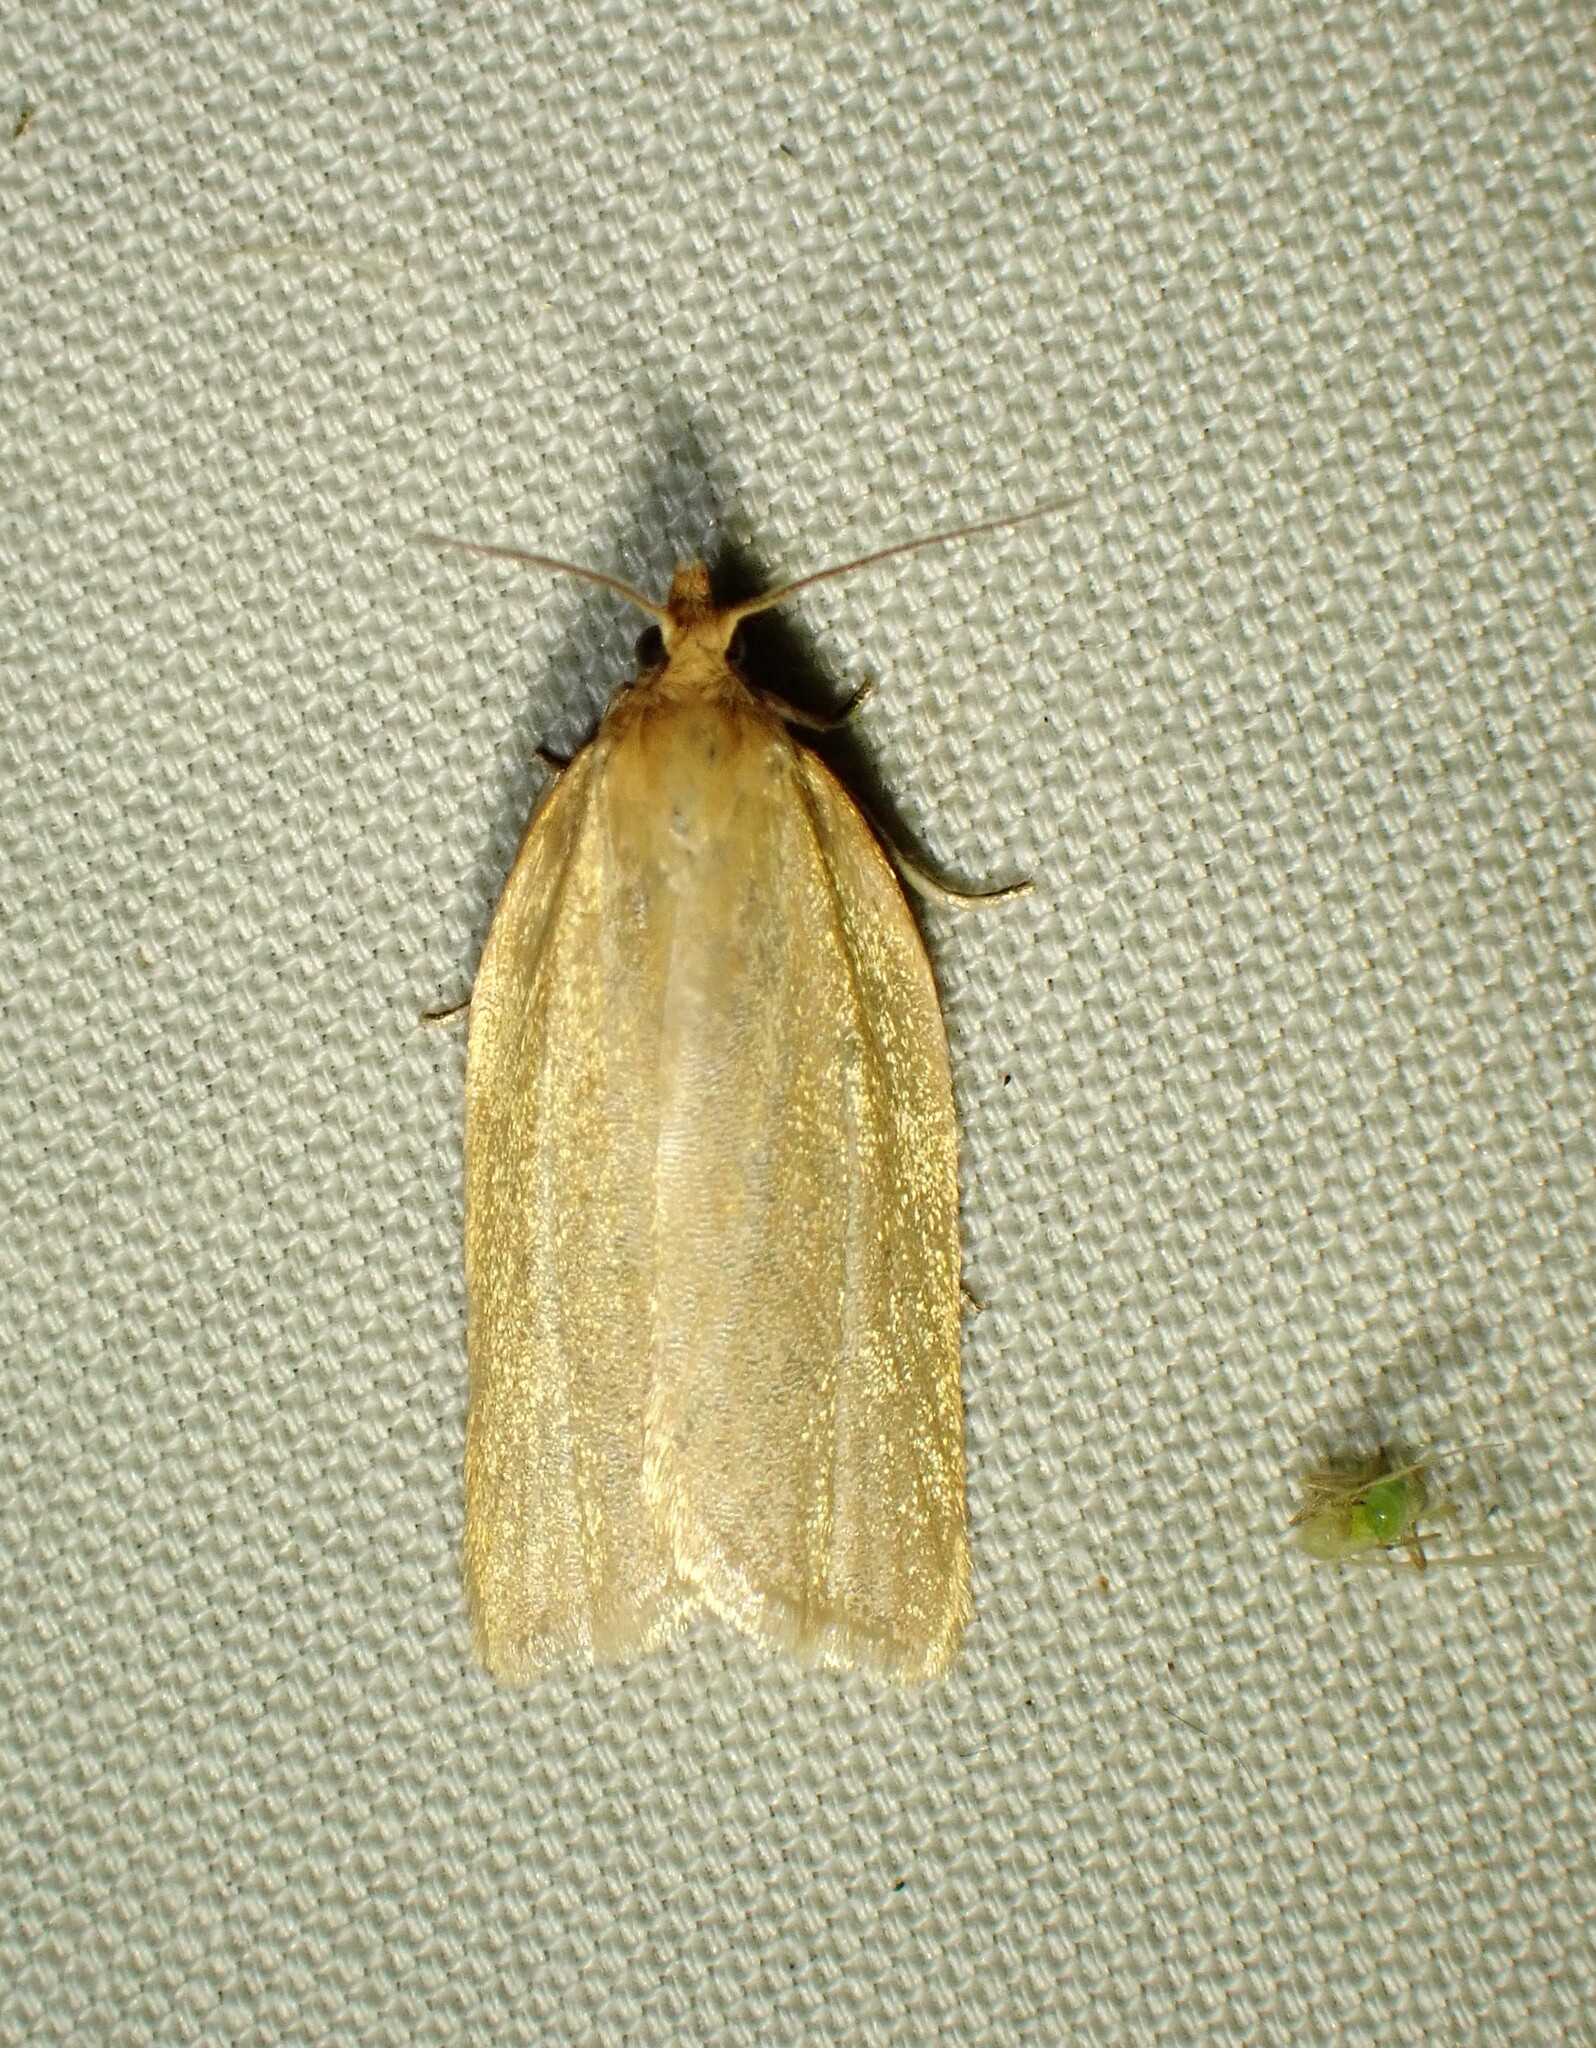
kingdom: Animalia
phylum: Arthropoda
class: Insecta
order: Lepidoptera
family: Tortricidae
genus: Clepsis
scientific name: Clepsis clemensiana
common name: Clemens' clepsis moth
